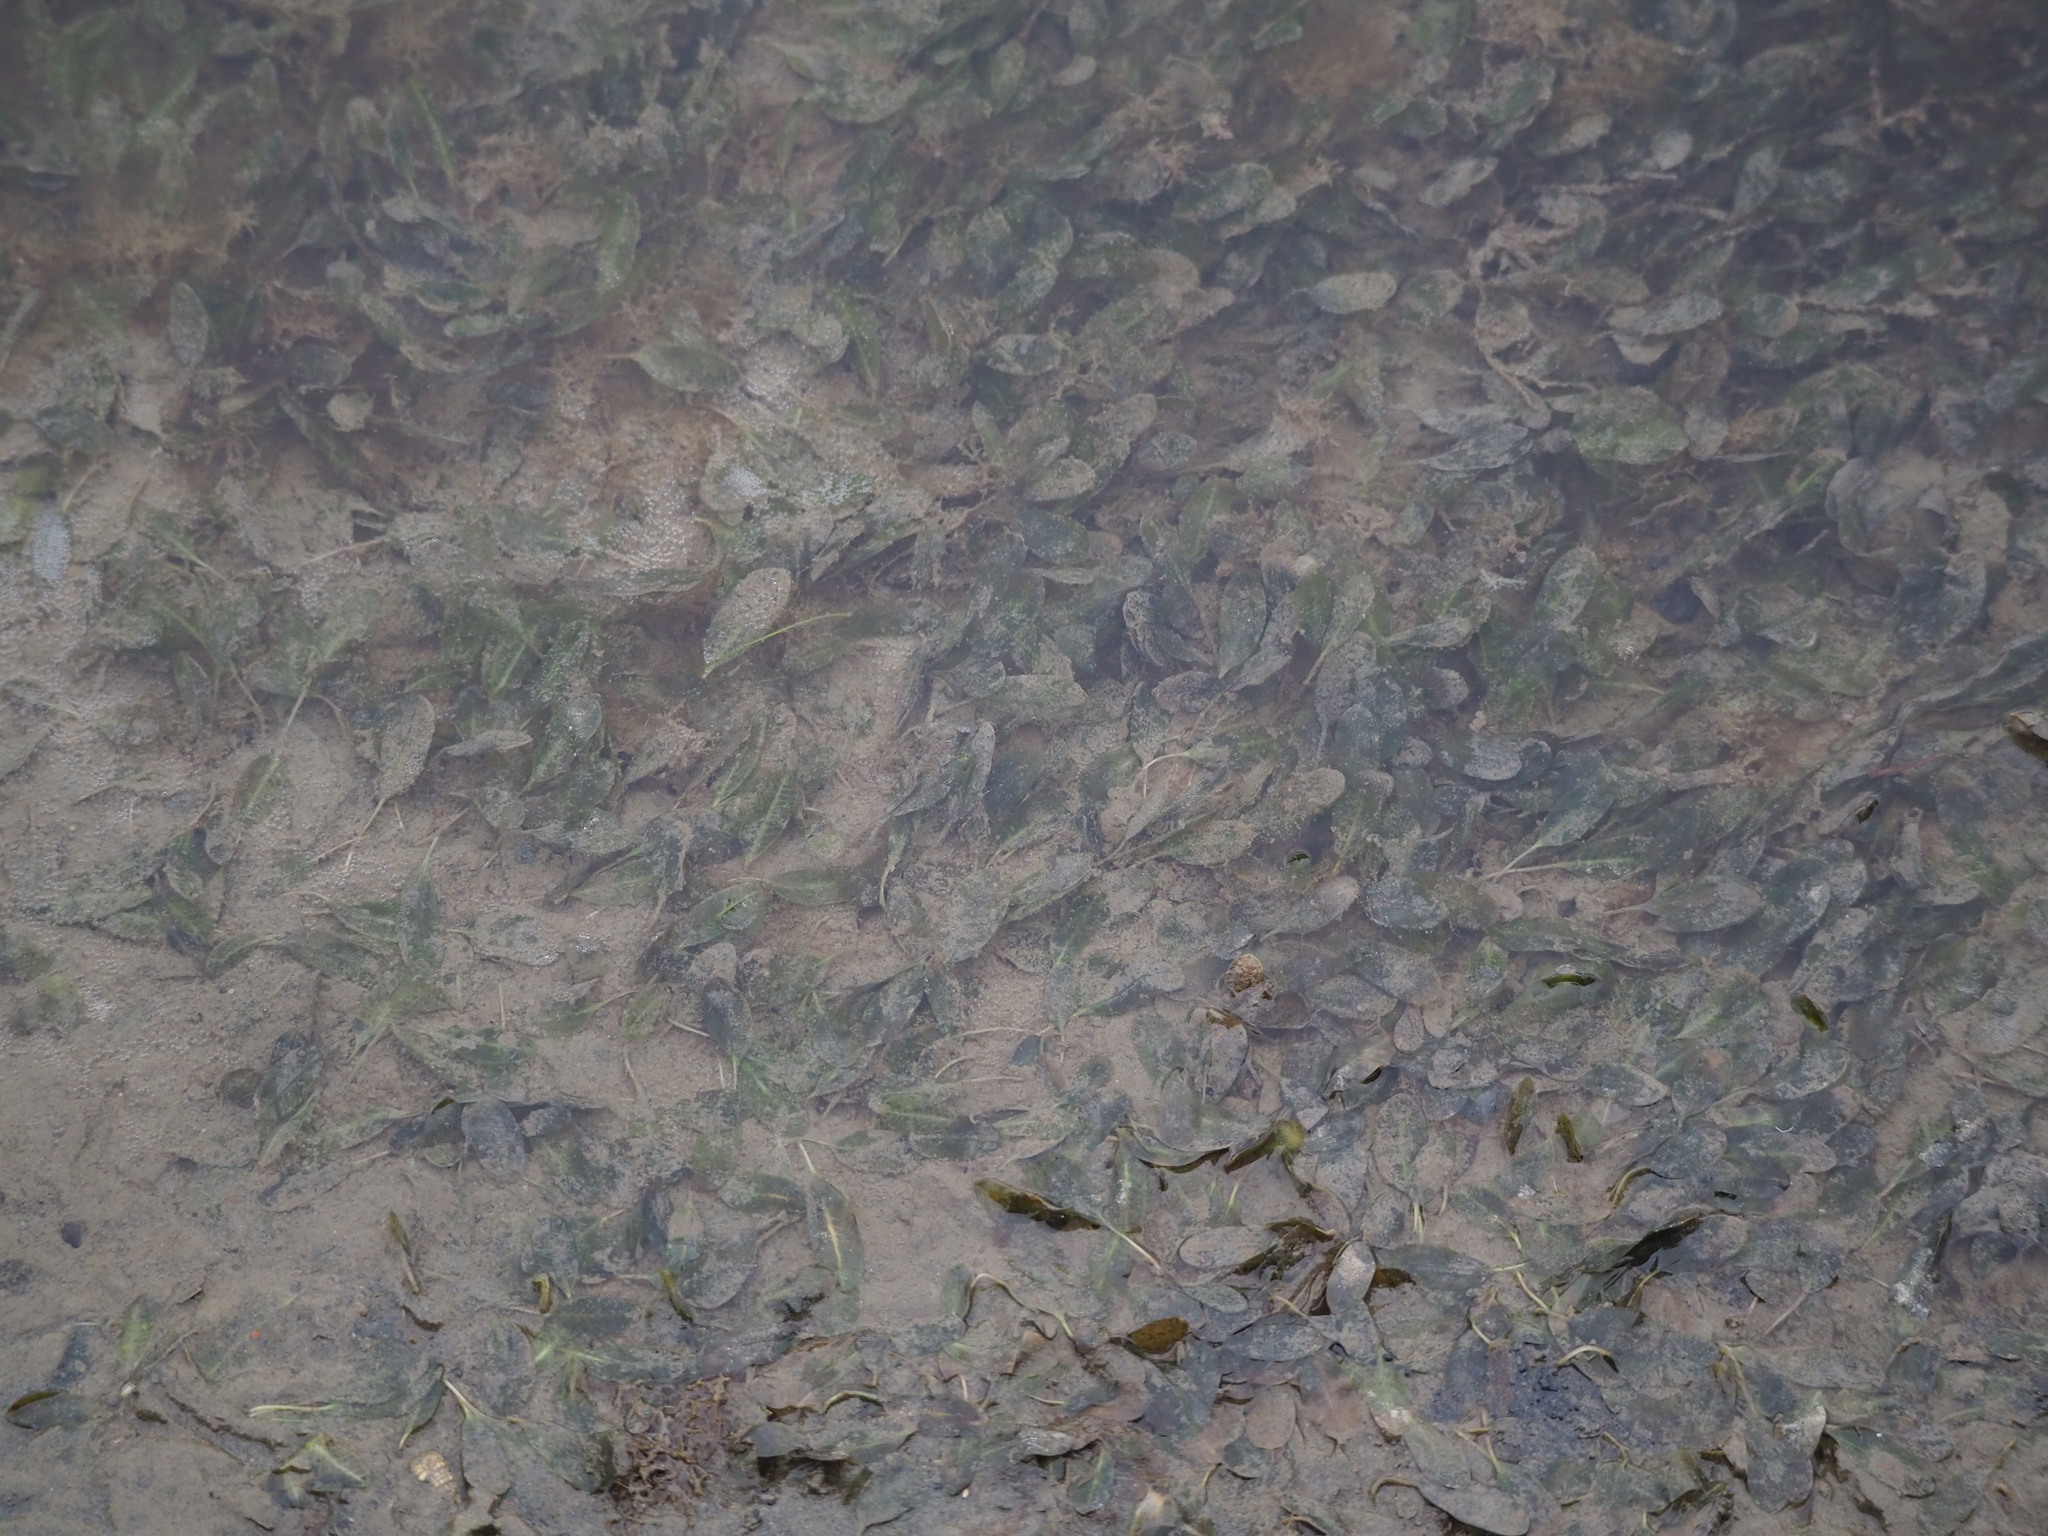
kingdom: Plantae
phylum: Tracheophyta
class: Liliopsida
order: Alismatales
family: Hydrocharitaceae
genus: Halophila
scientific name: Halophila ovalis
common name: Species code: ho
